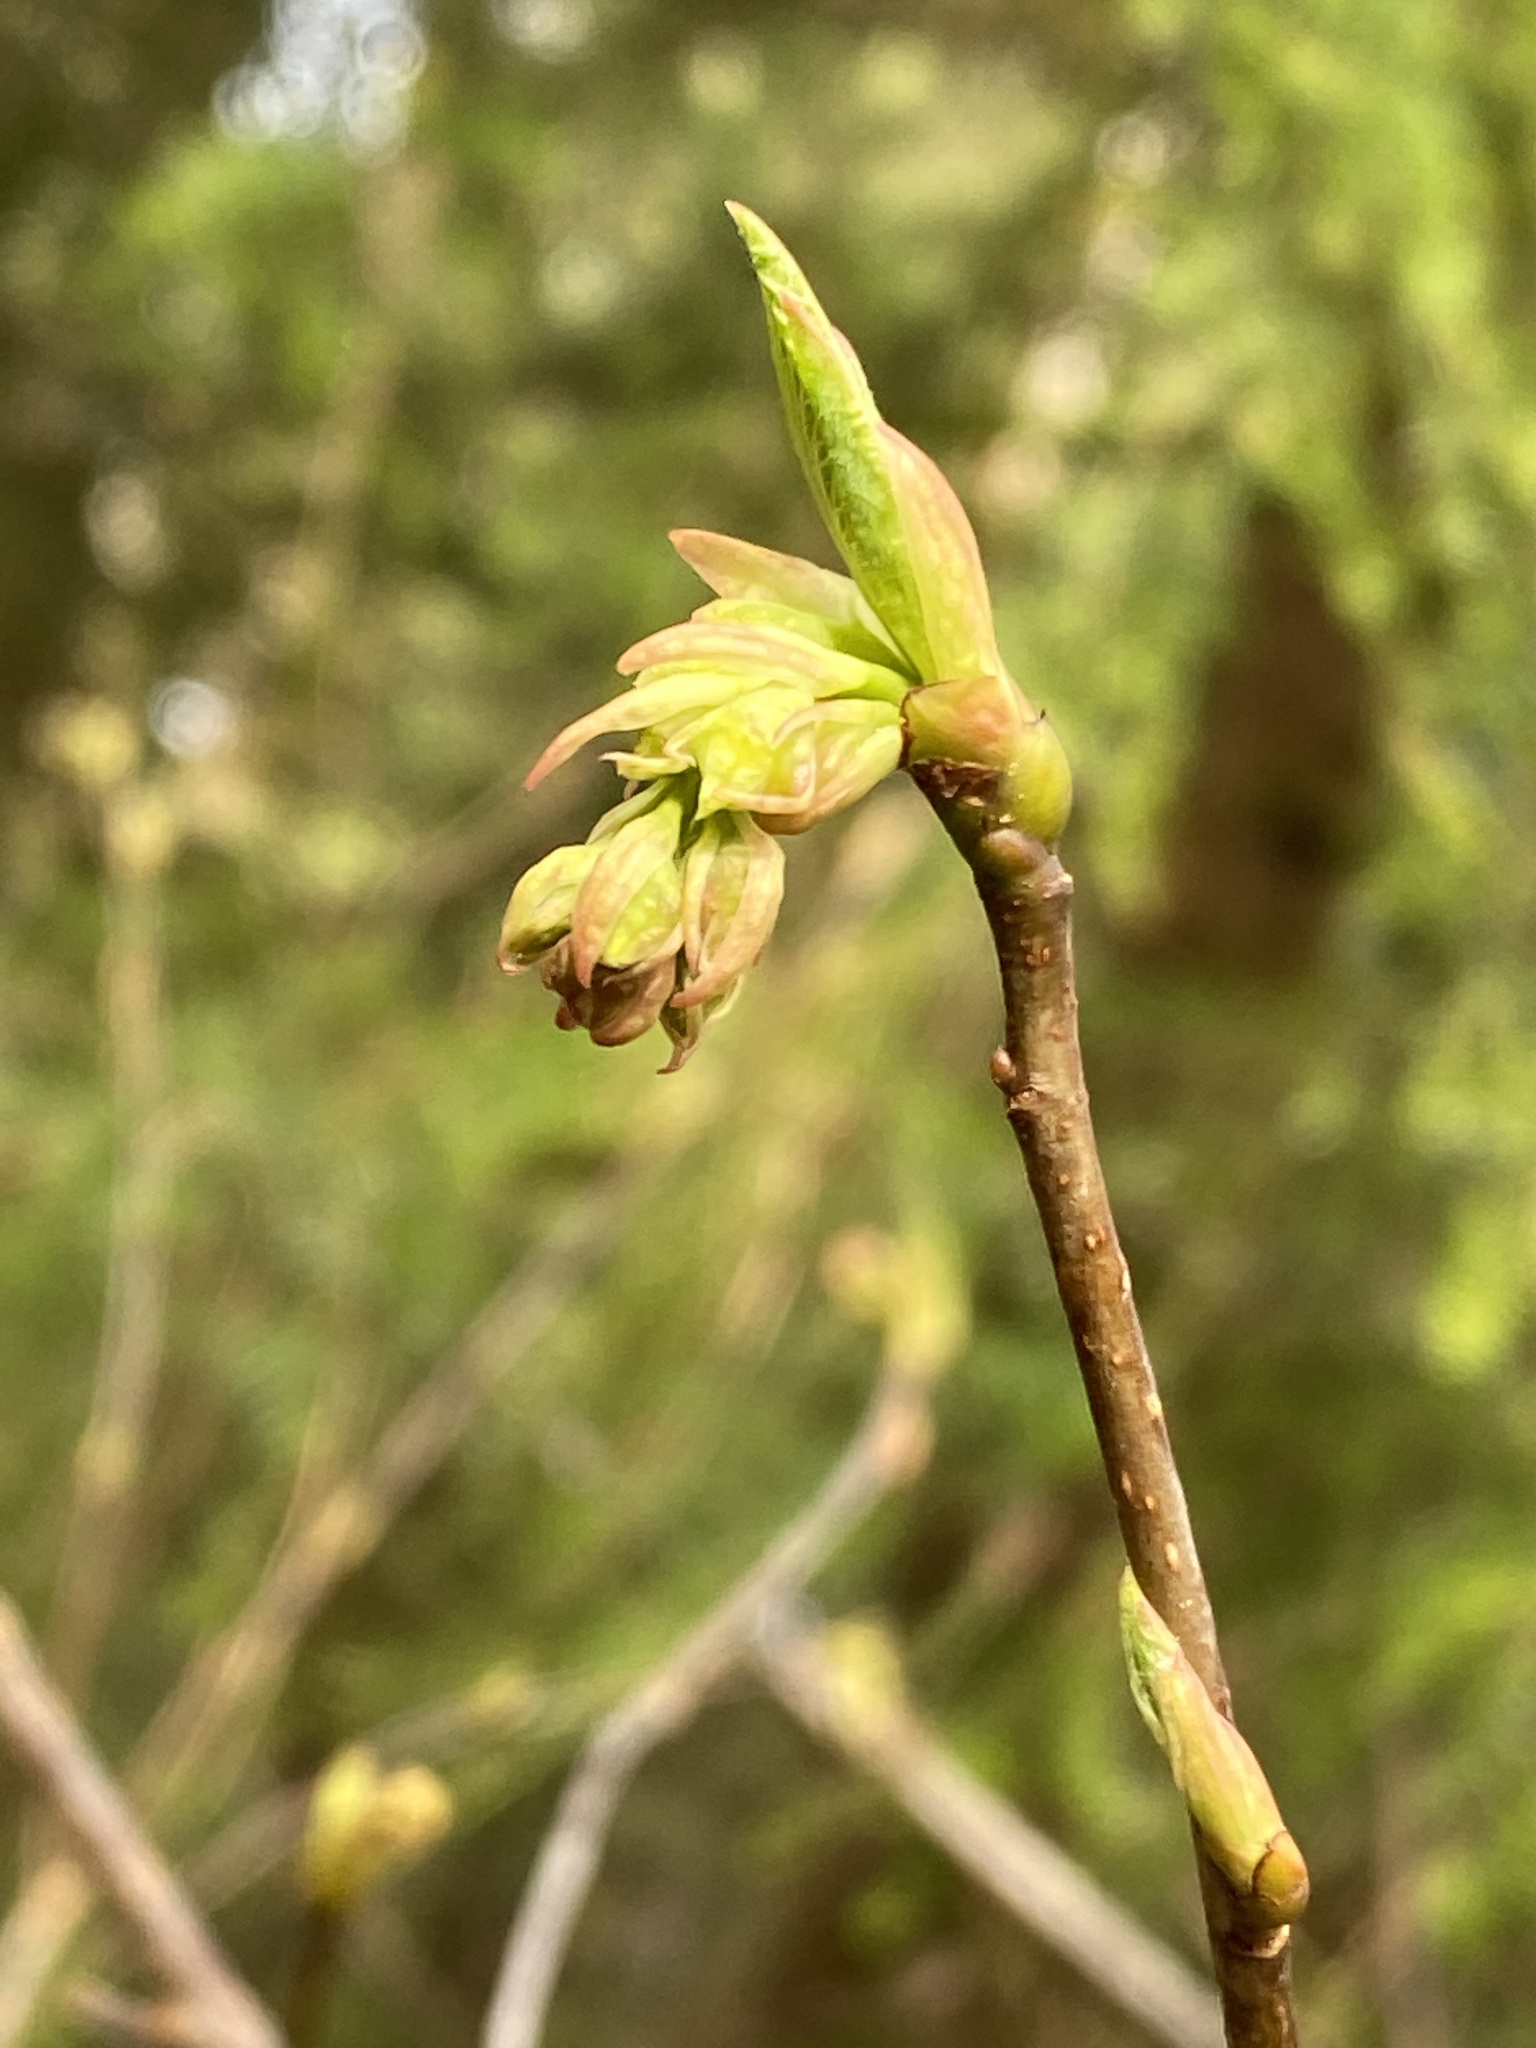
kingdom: Plantae
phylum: Tracheophyta
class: Magnoliopsida
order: Rosales
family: Rosaceae
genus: Oemleria
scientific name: Oemleria cerasiformis
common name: Osoberry
